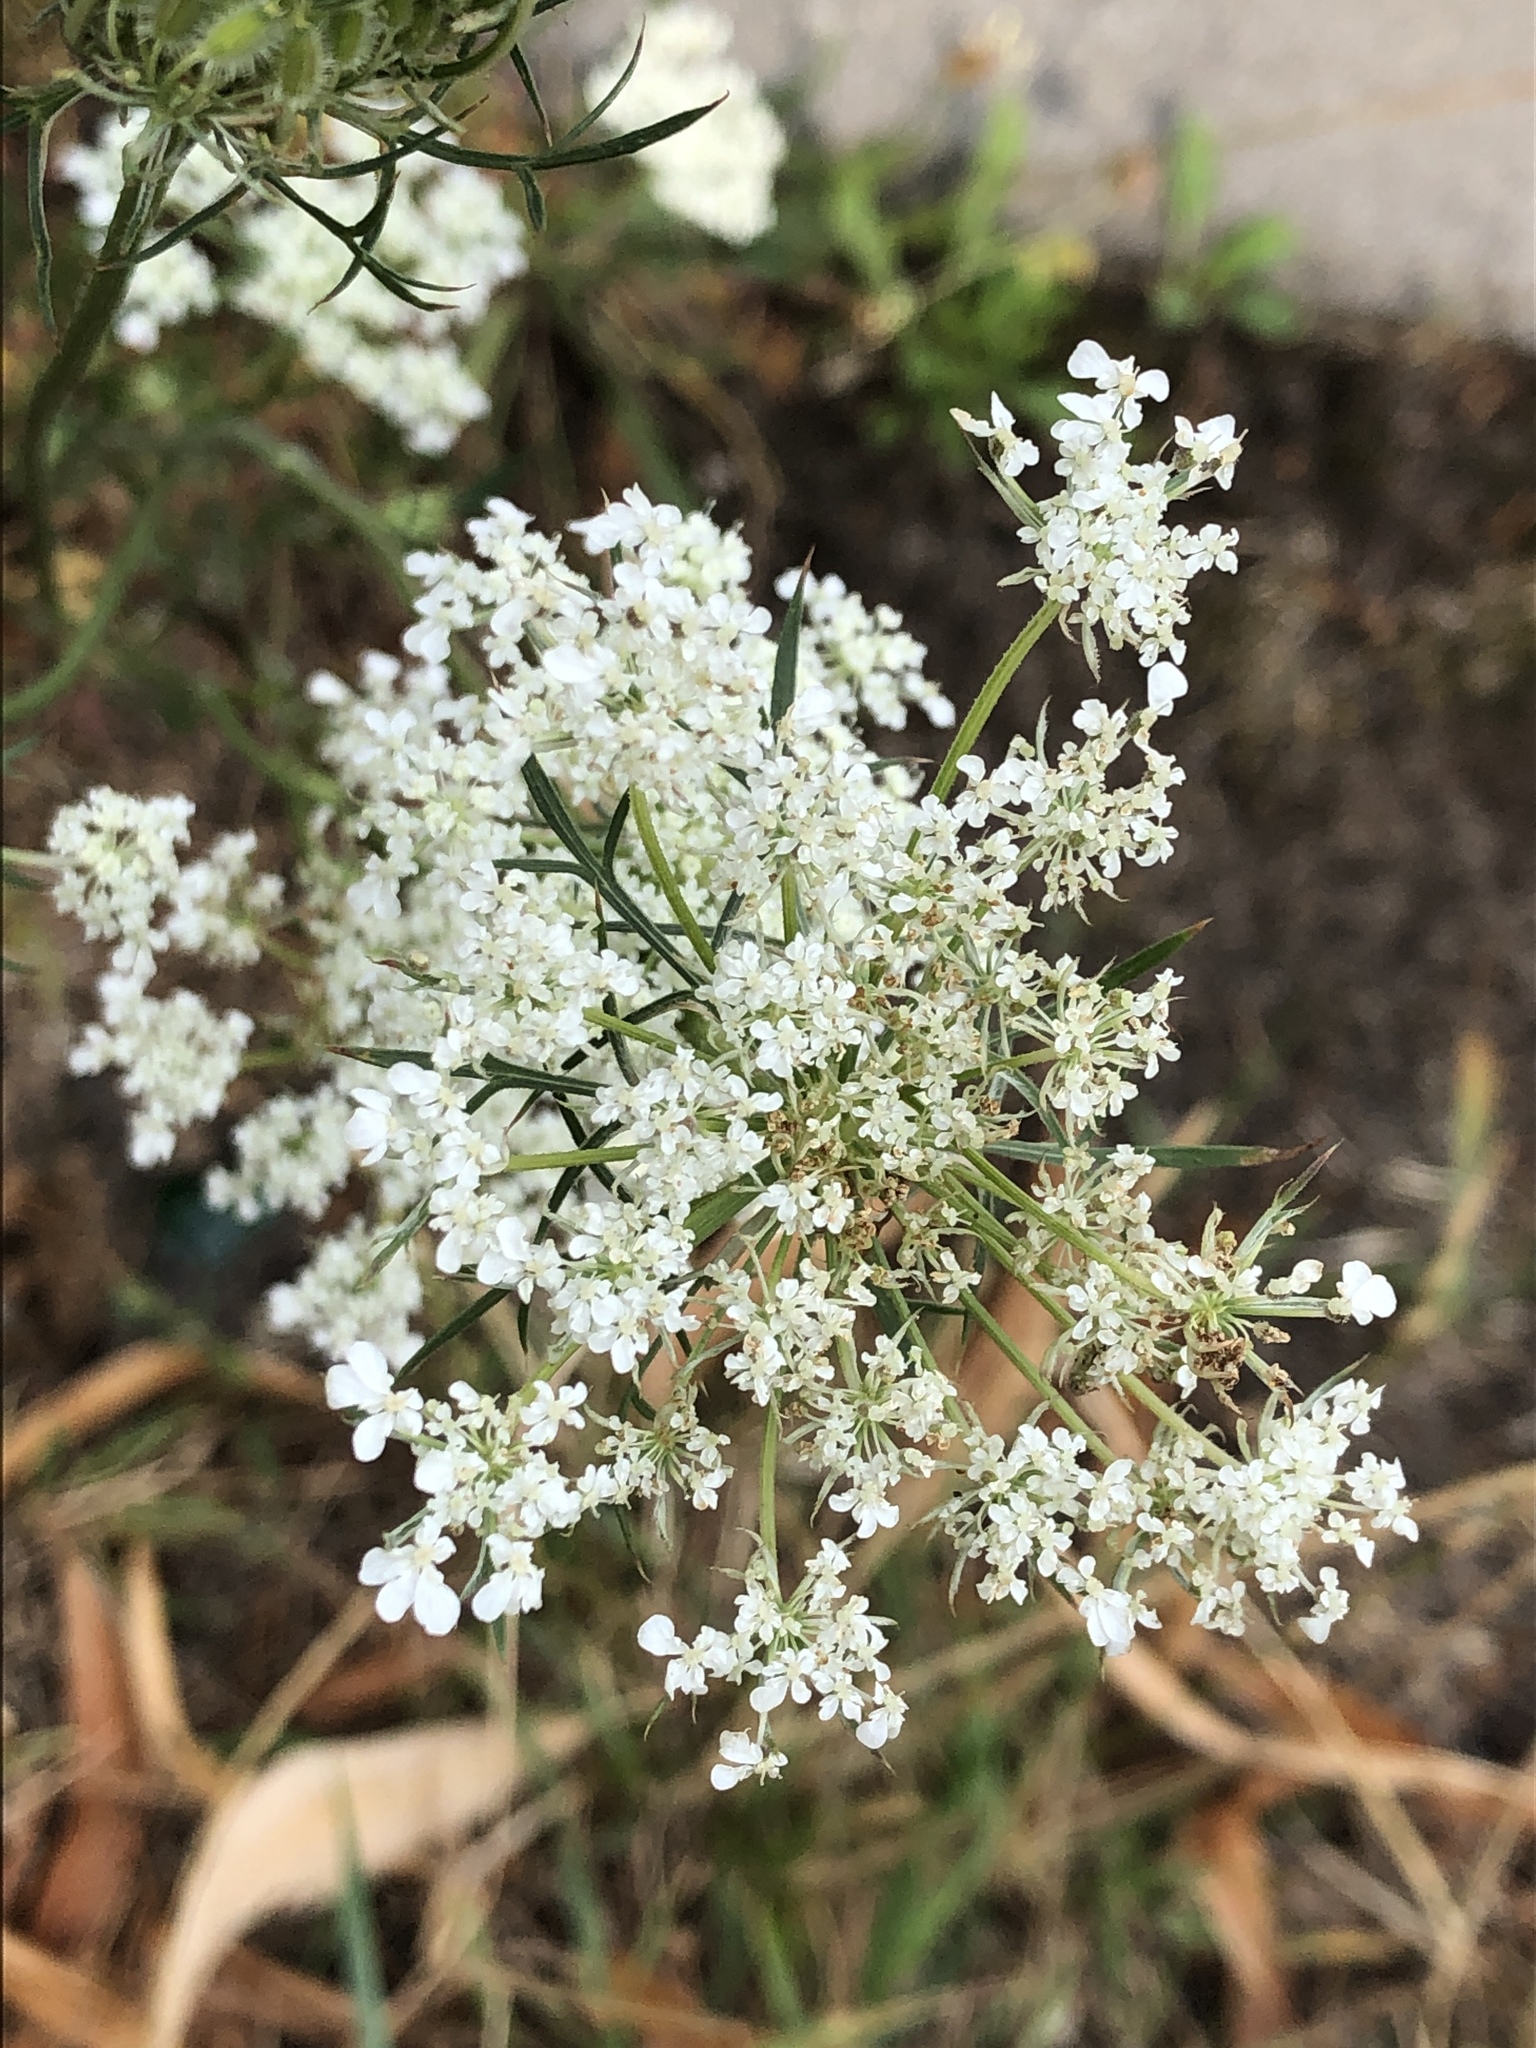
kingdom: Plantae
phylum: Tracheophyta
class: Magnoliopsida
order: Apiales
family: Apiaceae
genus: Daucus
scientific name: Daucus carota
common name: Wild carrot
